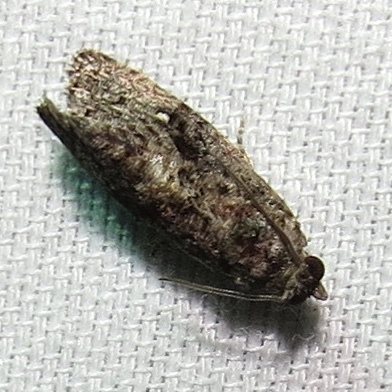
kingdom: Animalia
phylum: Arthropoda
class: Insecta
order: Lepidoptera
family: Tortricidae
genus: Gymnandrosoma
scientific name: Gymnandrosoma punctidiscanum
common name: Dotted ecdytolopha moth
